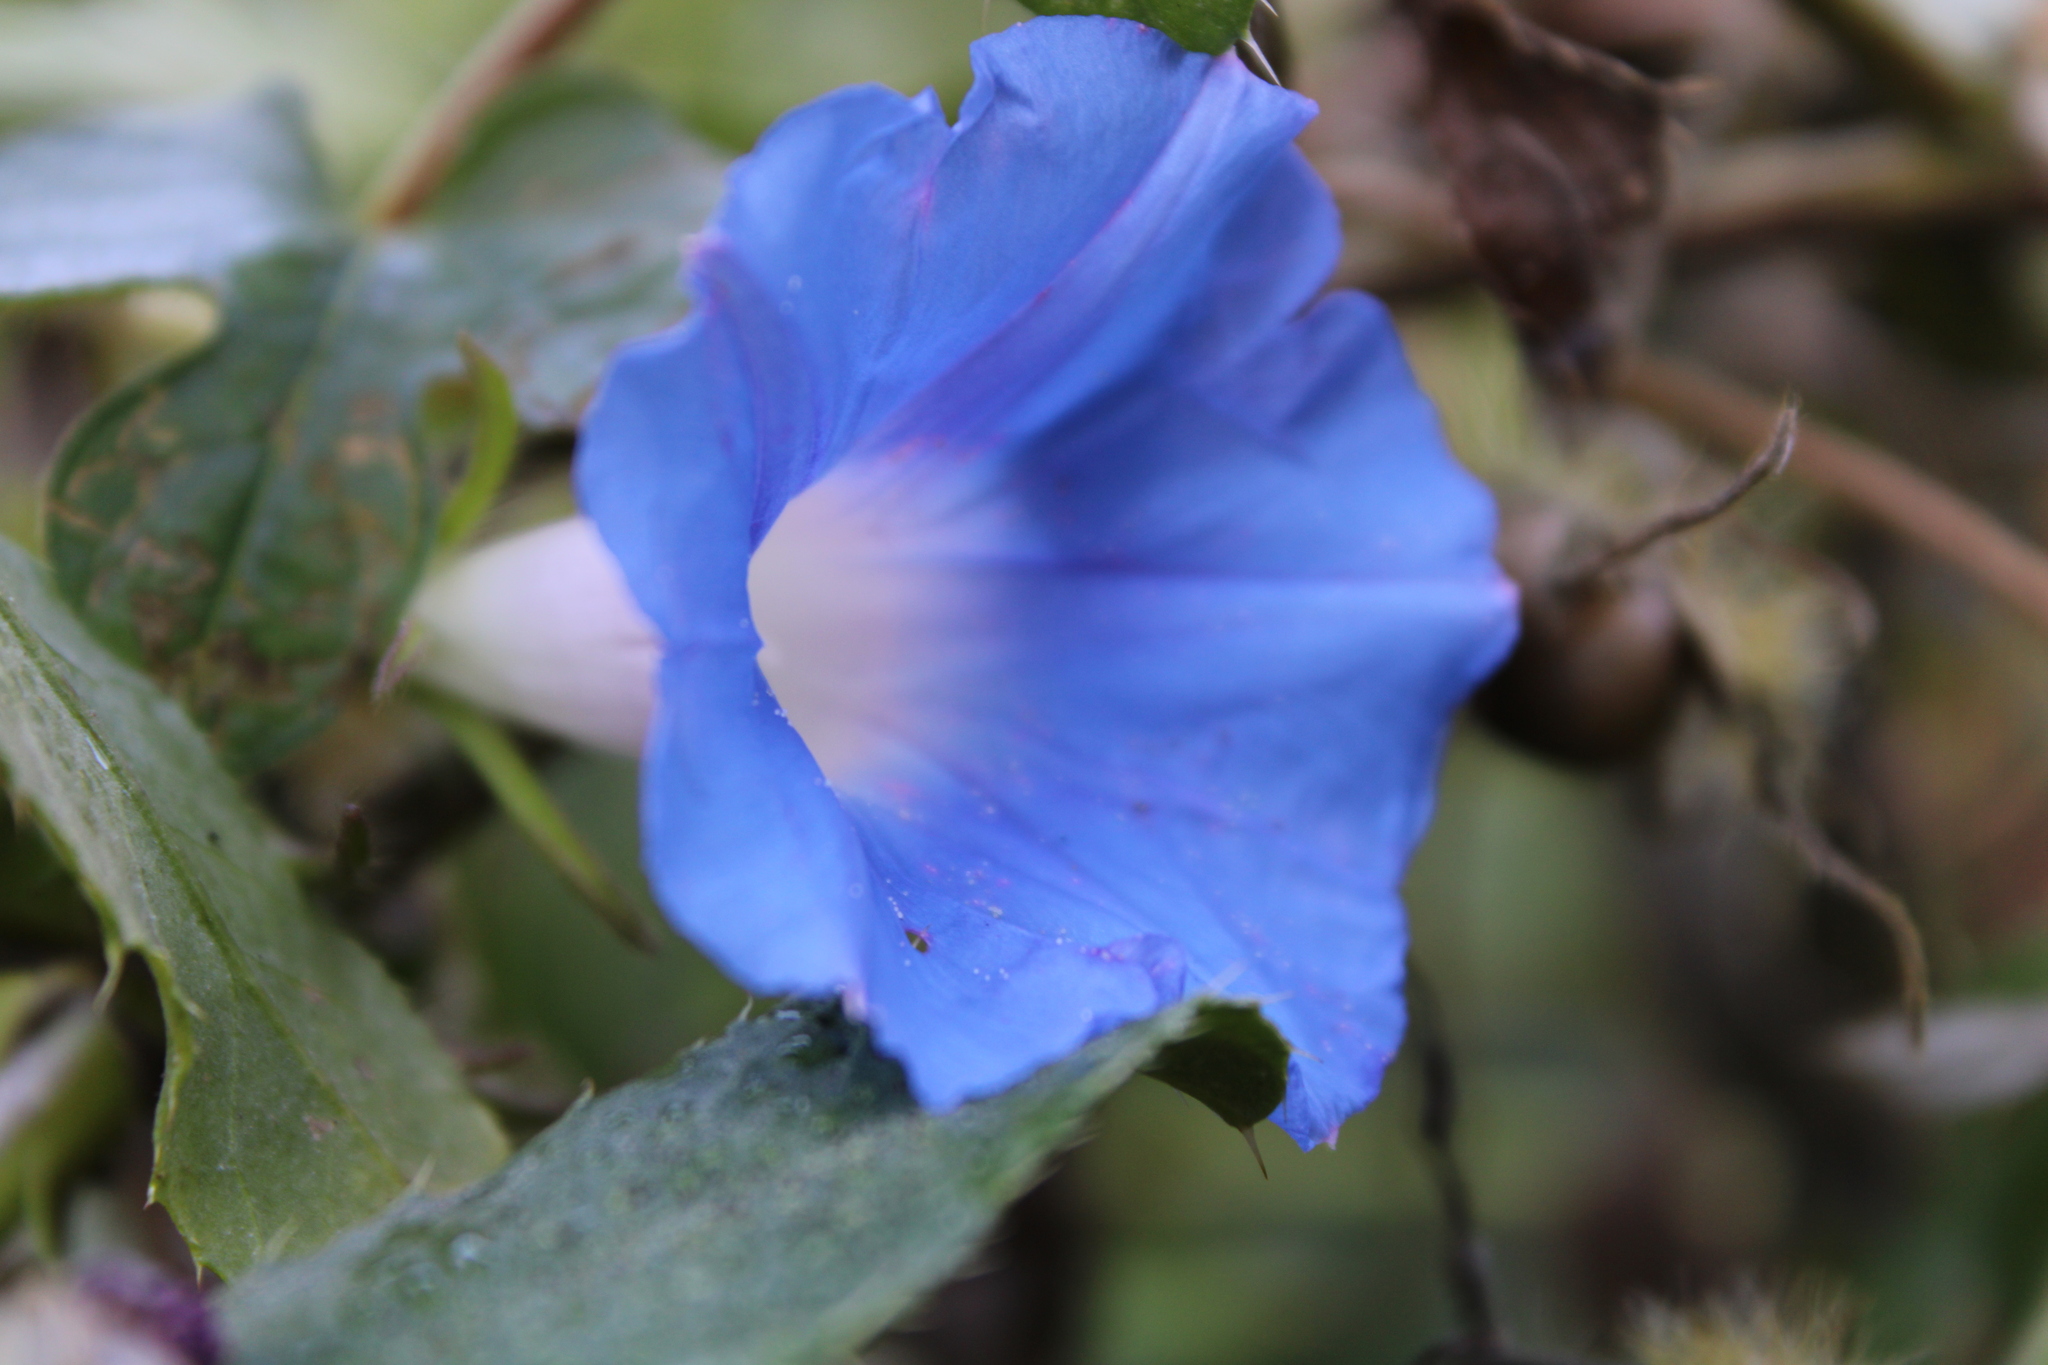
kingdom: Plantae
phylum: Tracheophyta
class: Magnoliopsida
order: Solanales
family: Convolvulaceae
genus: Ipomoea
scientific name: Ipomoea hederacea
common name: Ivy-leaved morning-glory
